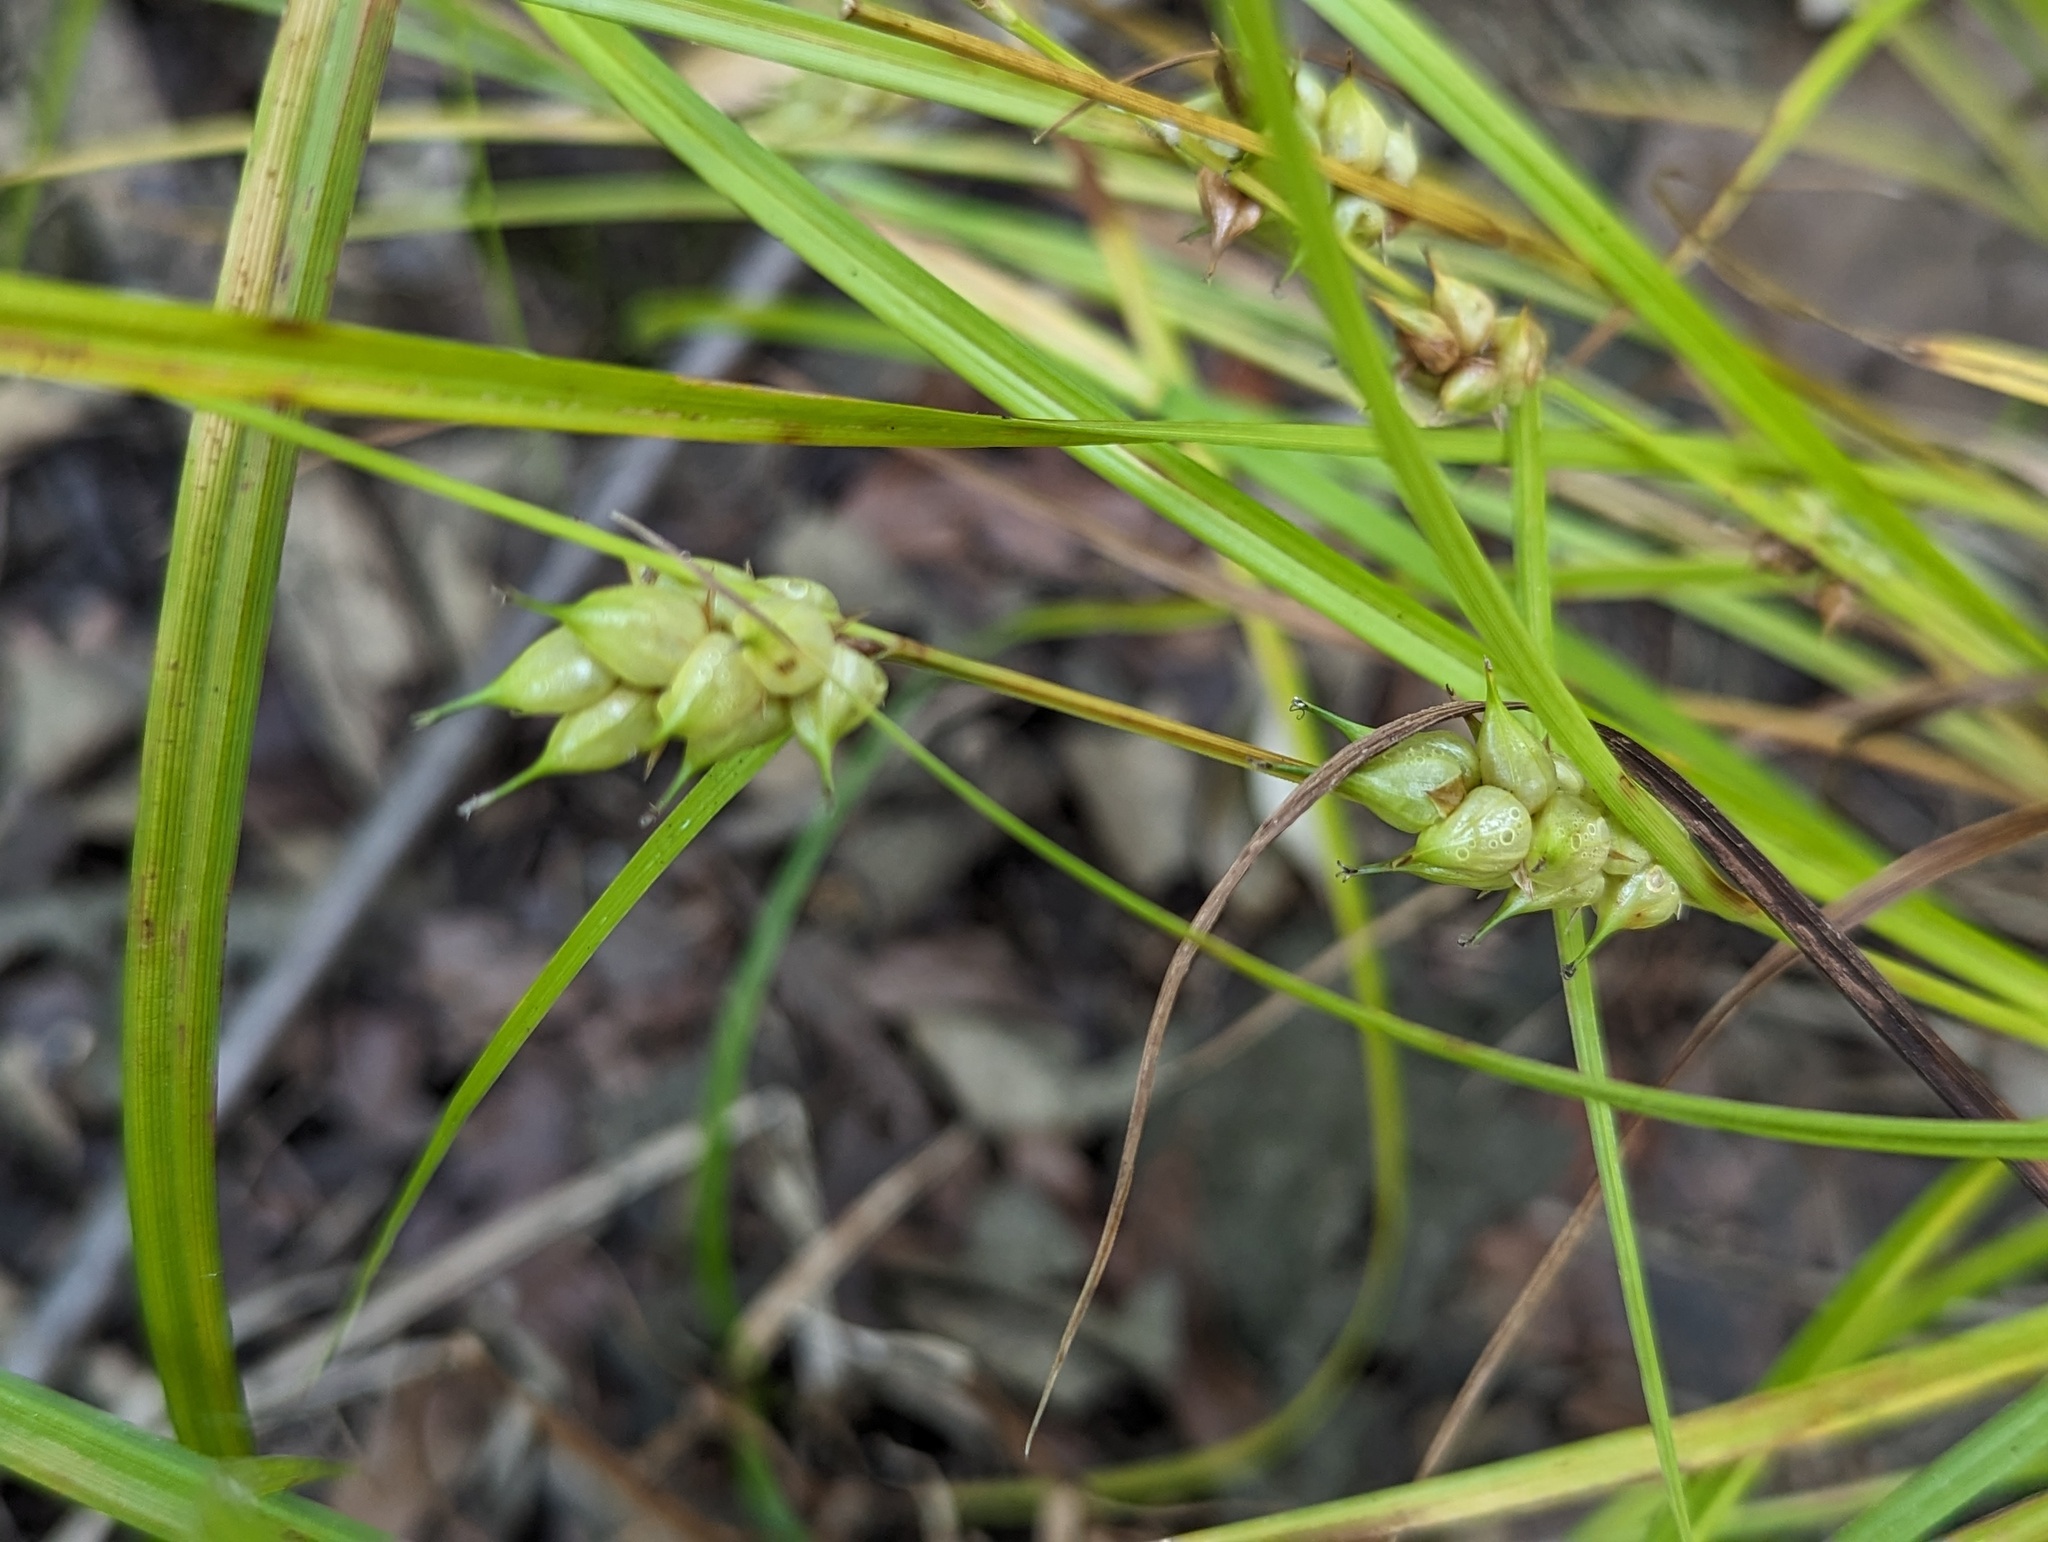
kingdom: Plantae
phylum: Tracheophyta
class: Liliopsida
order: Poales
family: Cyperaceae
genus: Carex
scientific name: Carex tuckermanii
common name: Tuckerman's sedge
